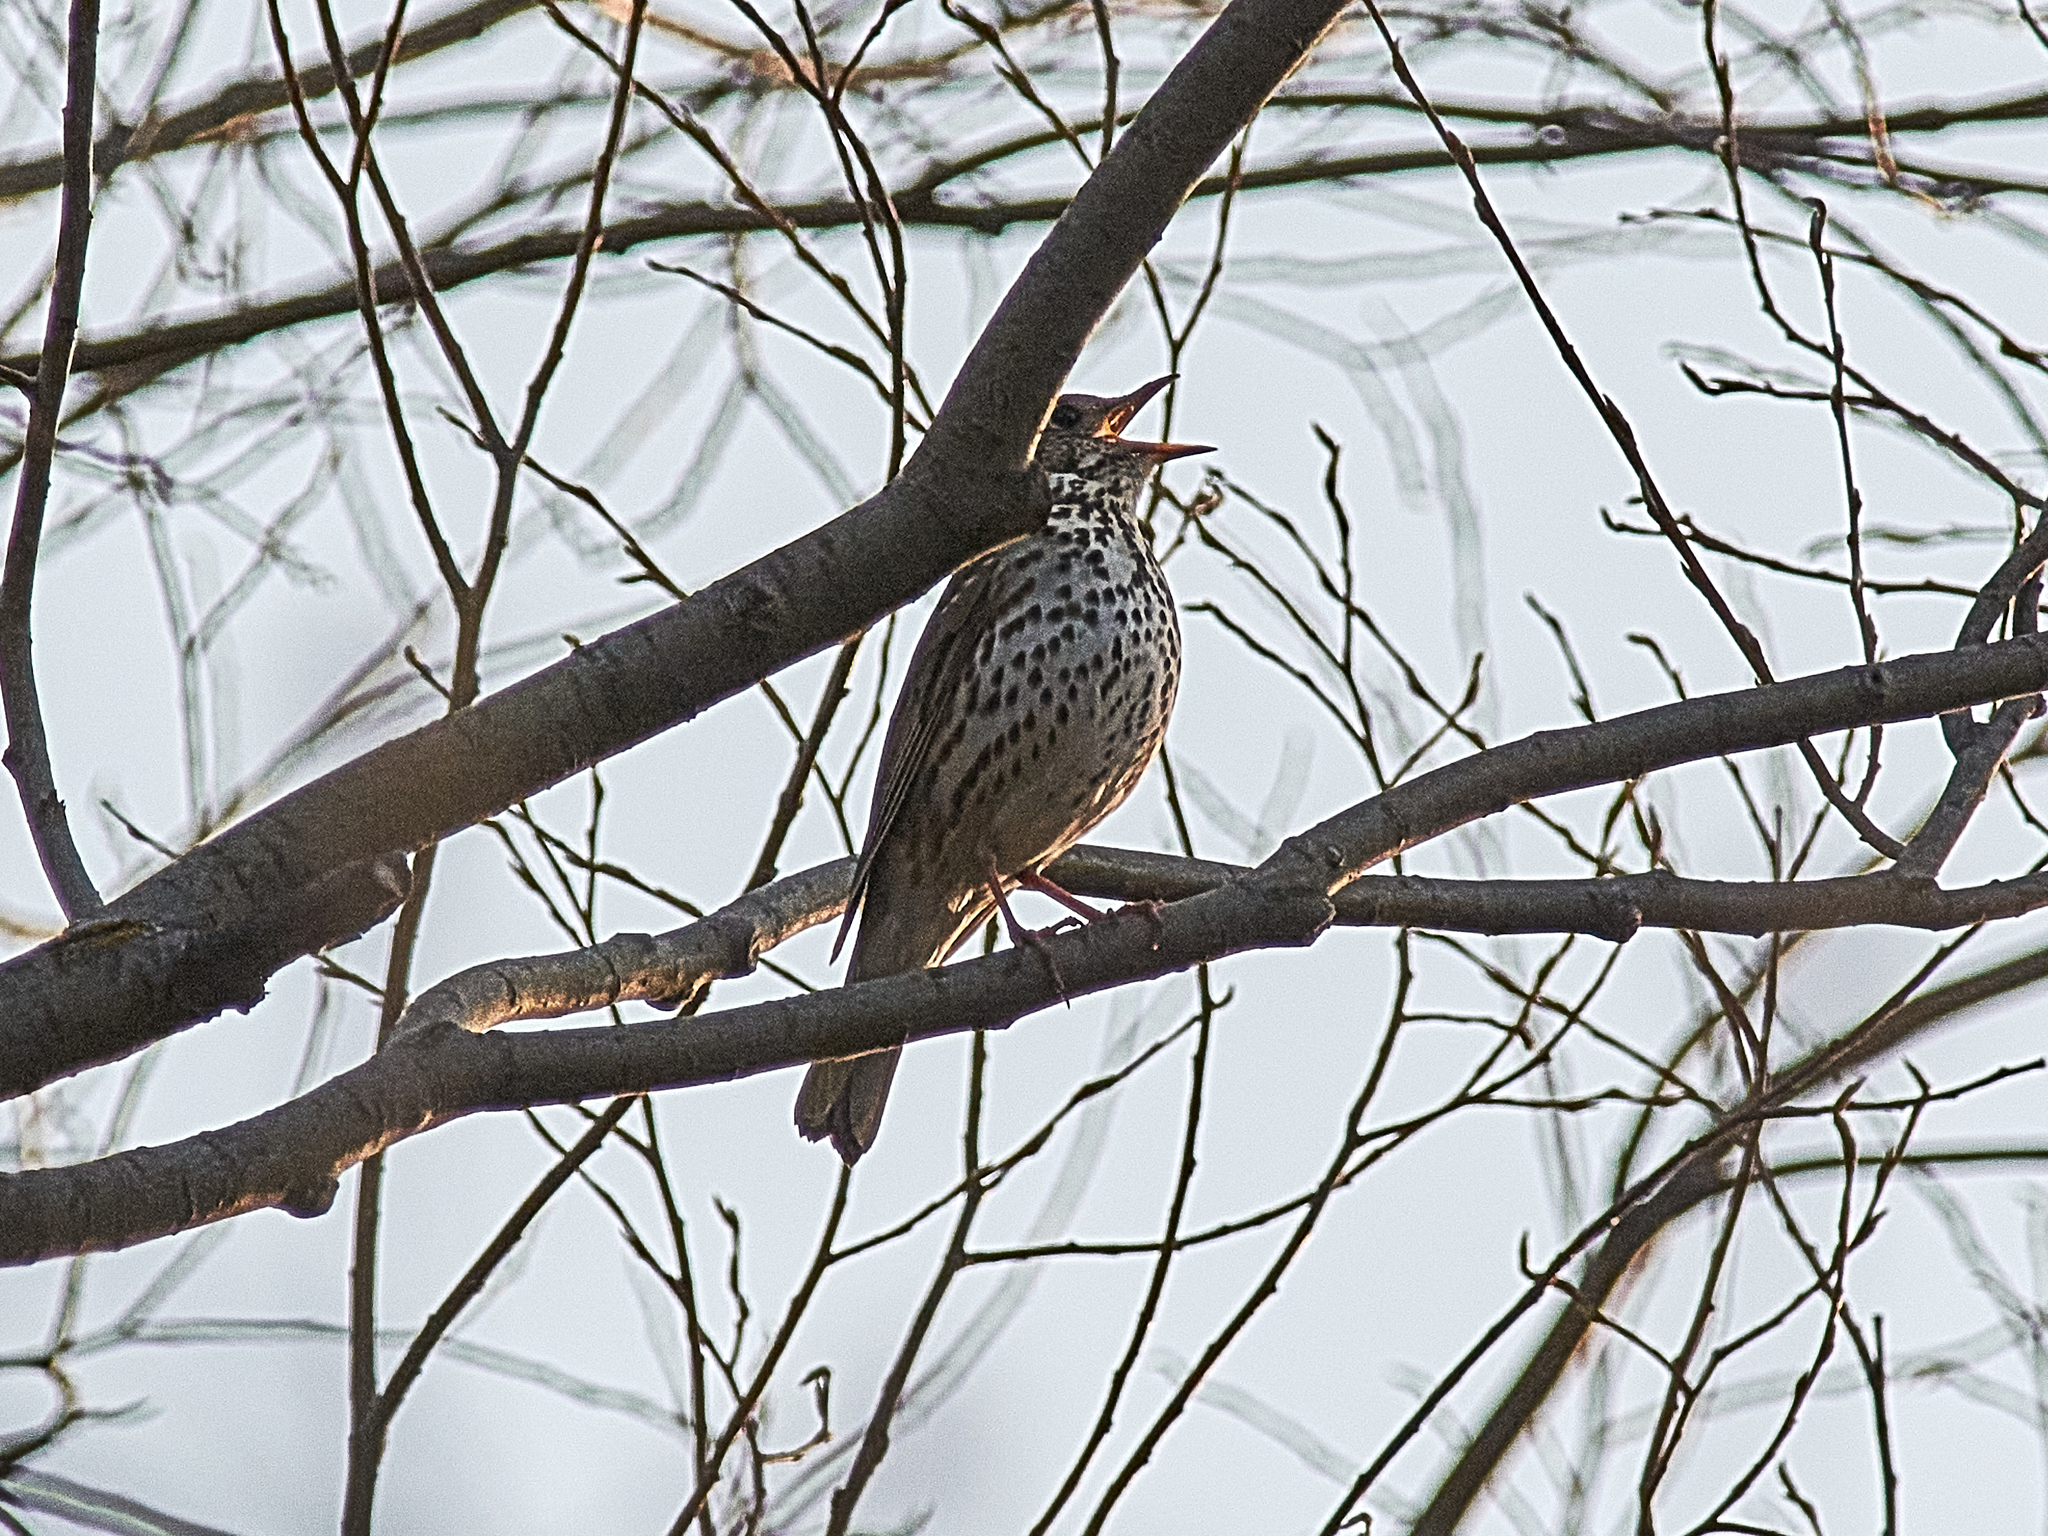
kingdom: Animalia
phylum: Chordata
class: Aves
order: Passeriformes
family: Turdidae
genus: Turdus
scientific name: Turdus philomelos
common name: Song thrush
